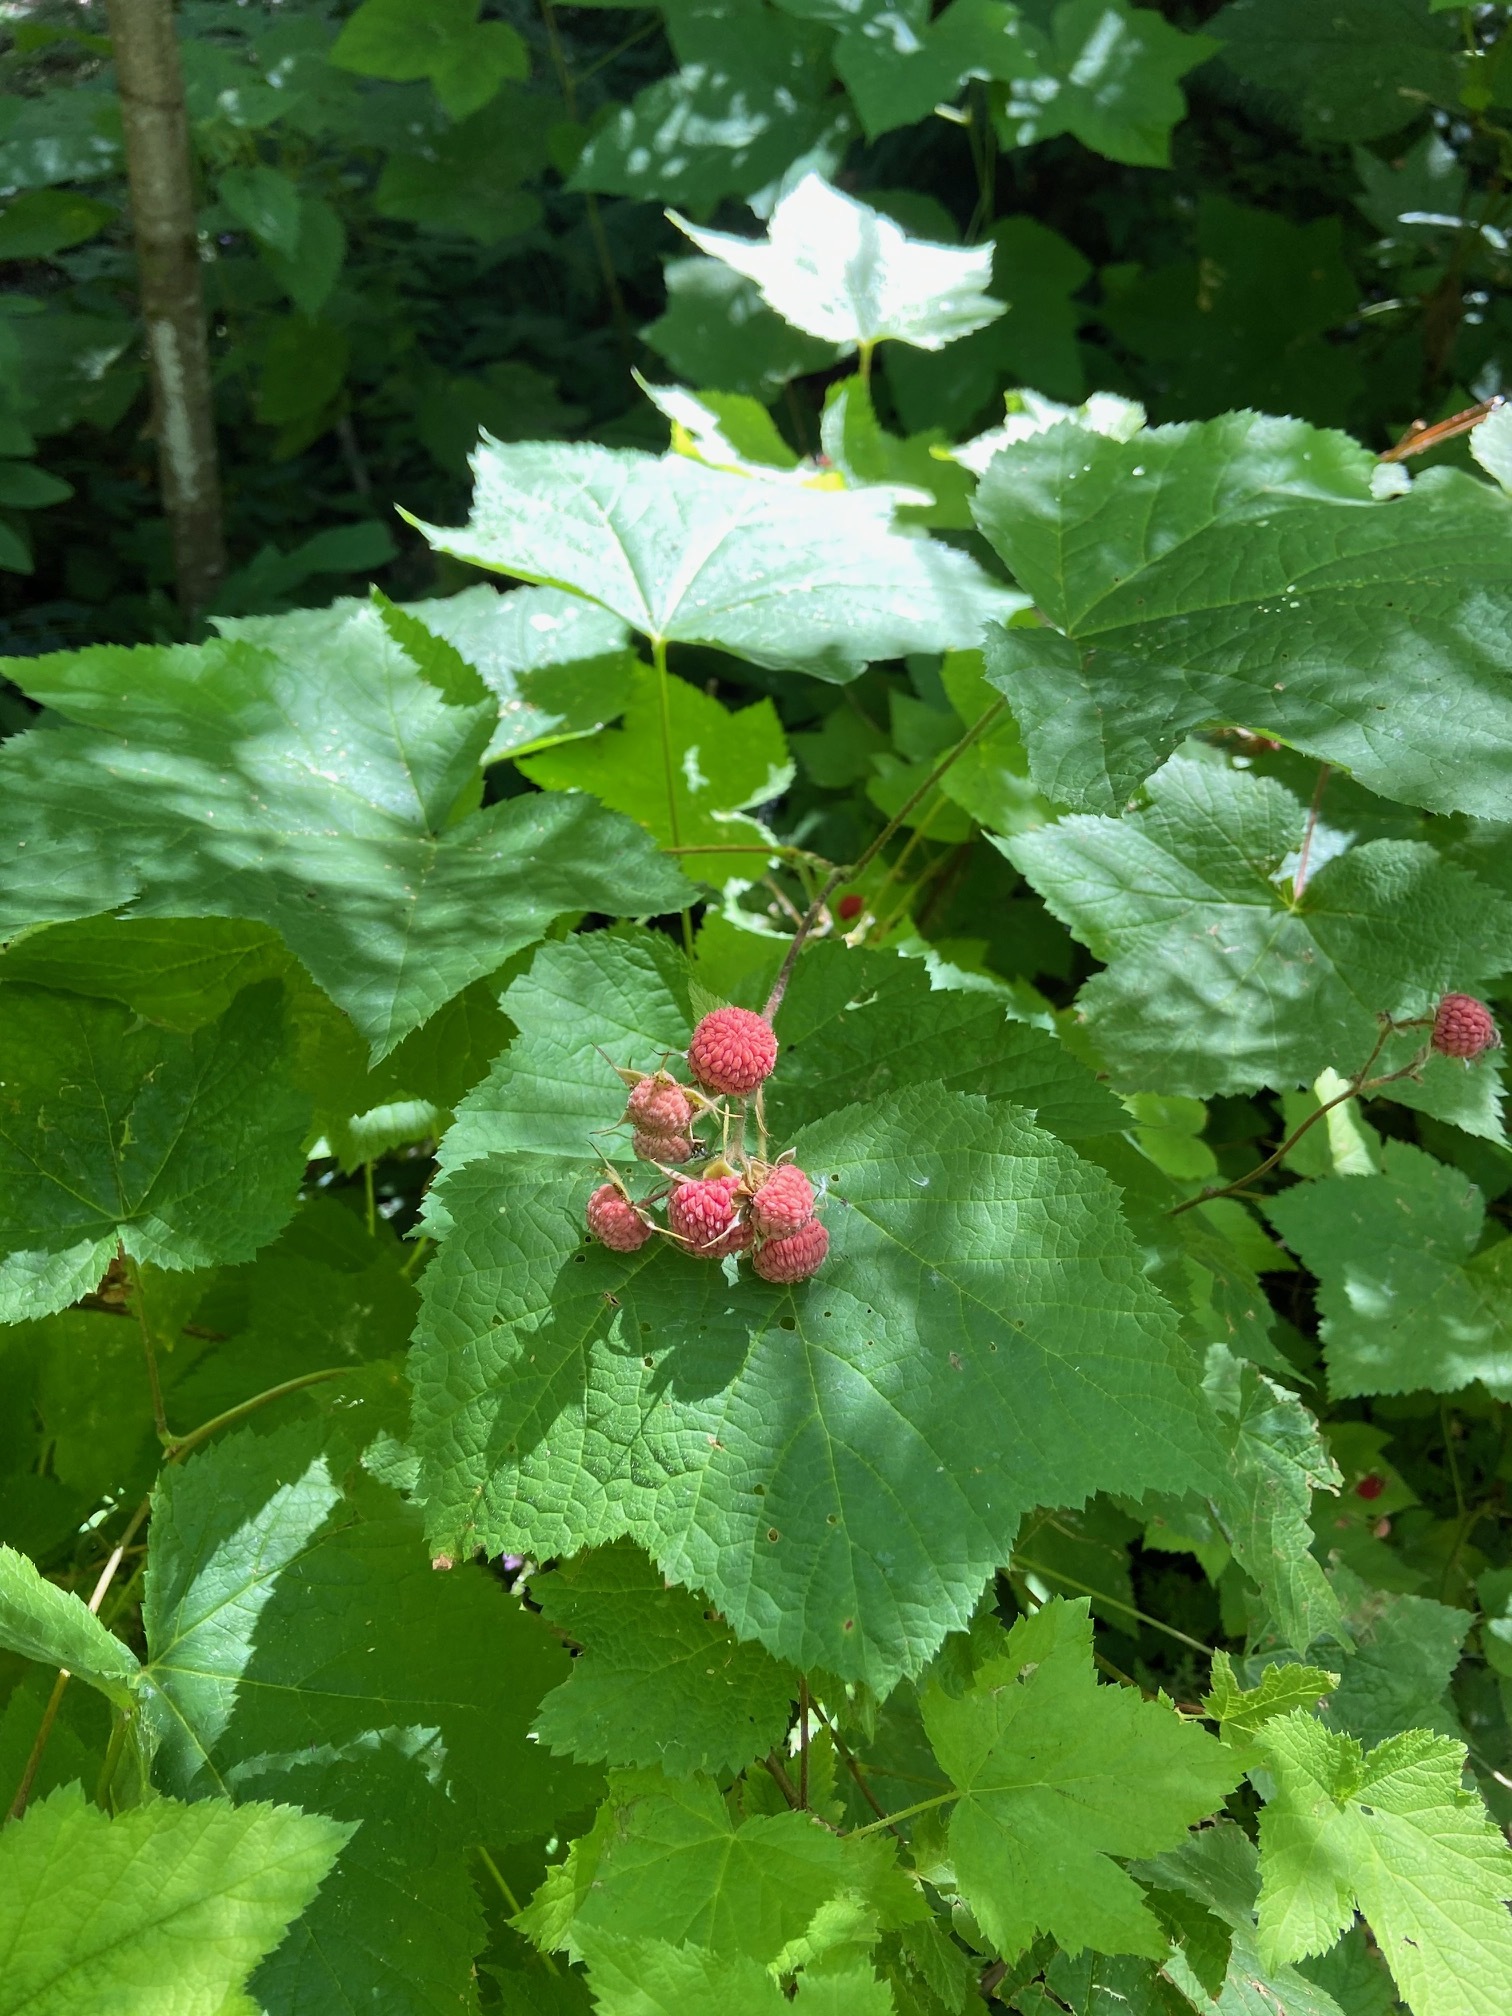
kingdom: Plantae
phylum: Tracheophyta
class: Magnoliopsida
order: Rosales
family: Rosaceae
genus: Rubus
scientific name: Rubus parviflorus
